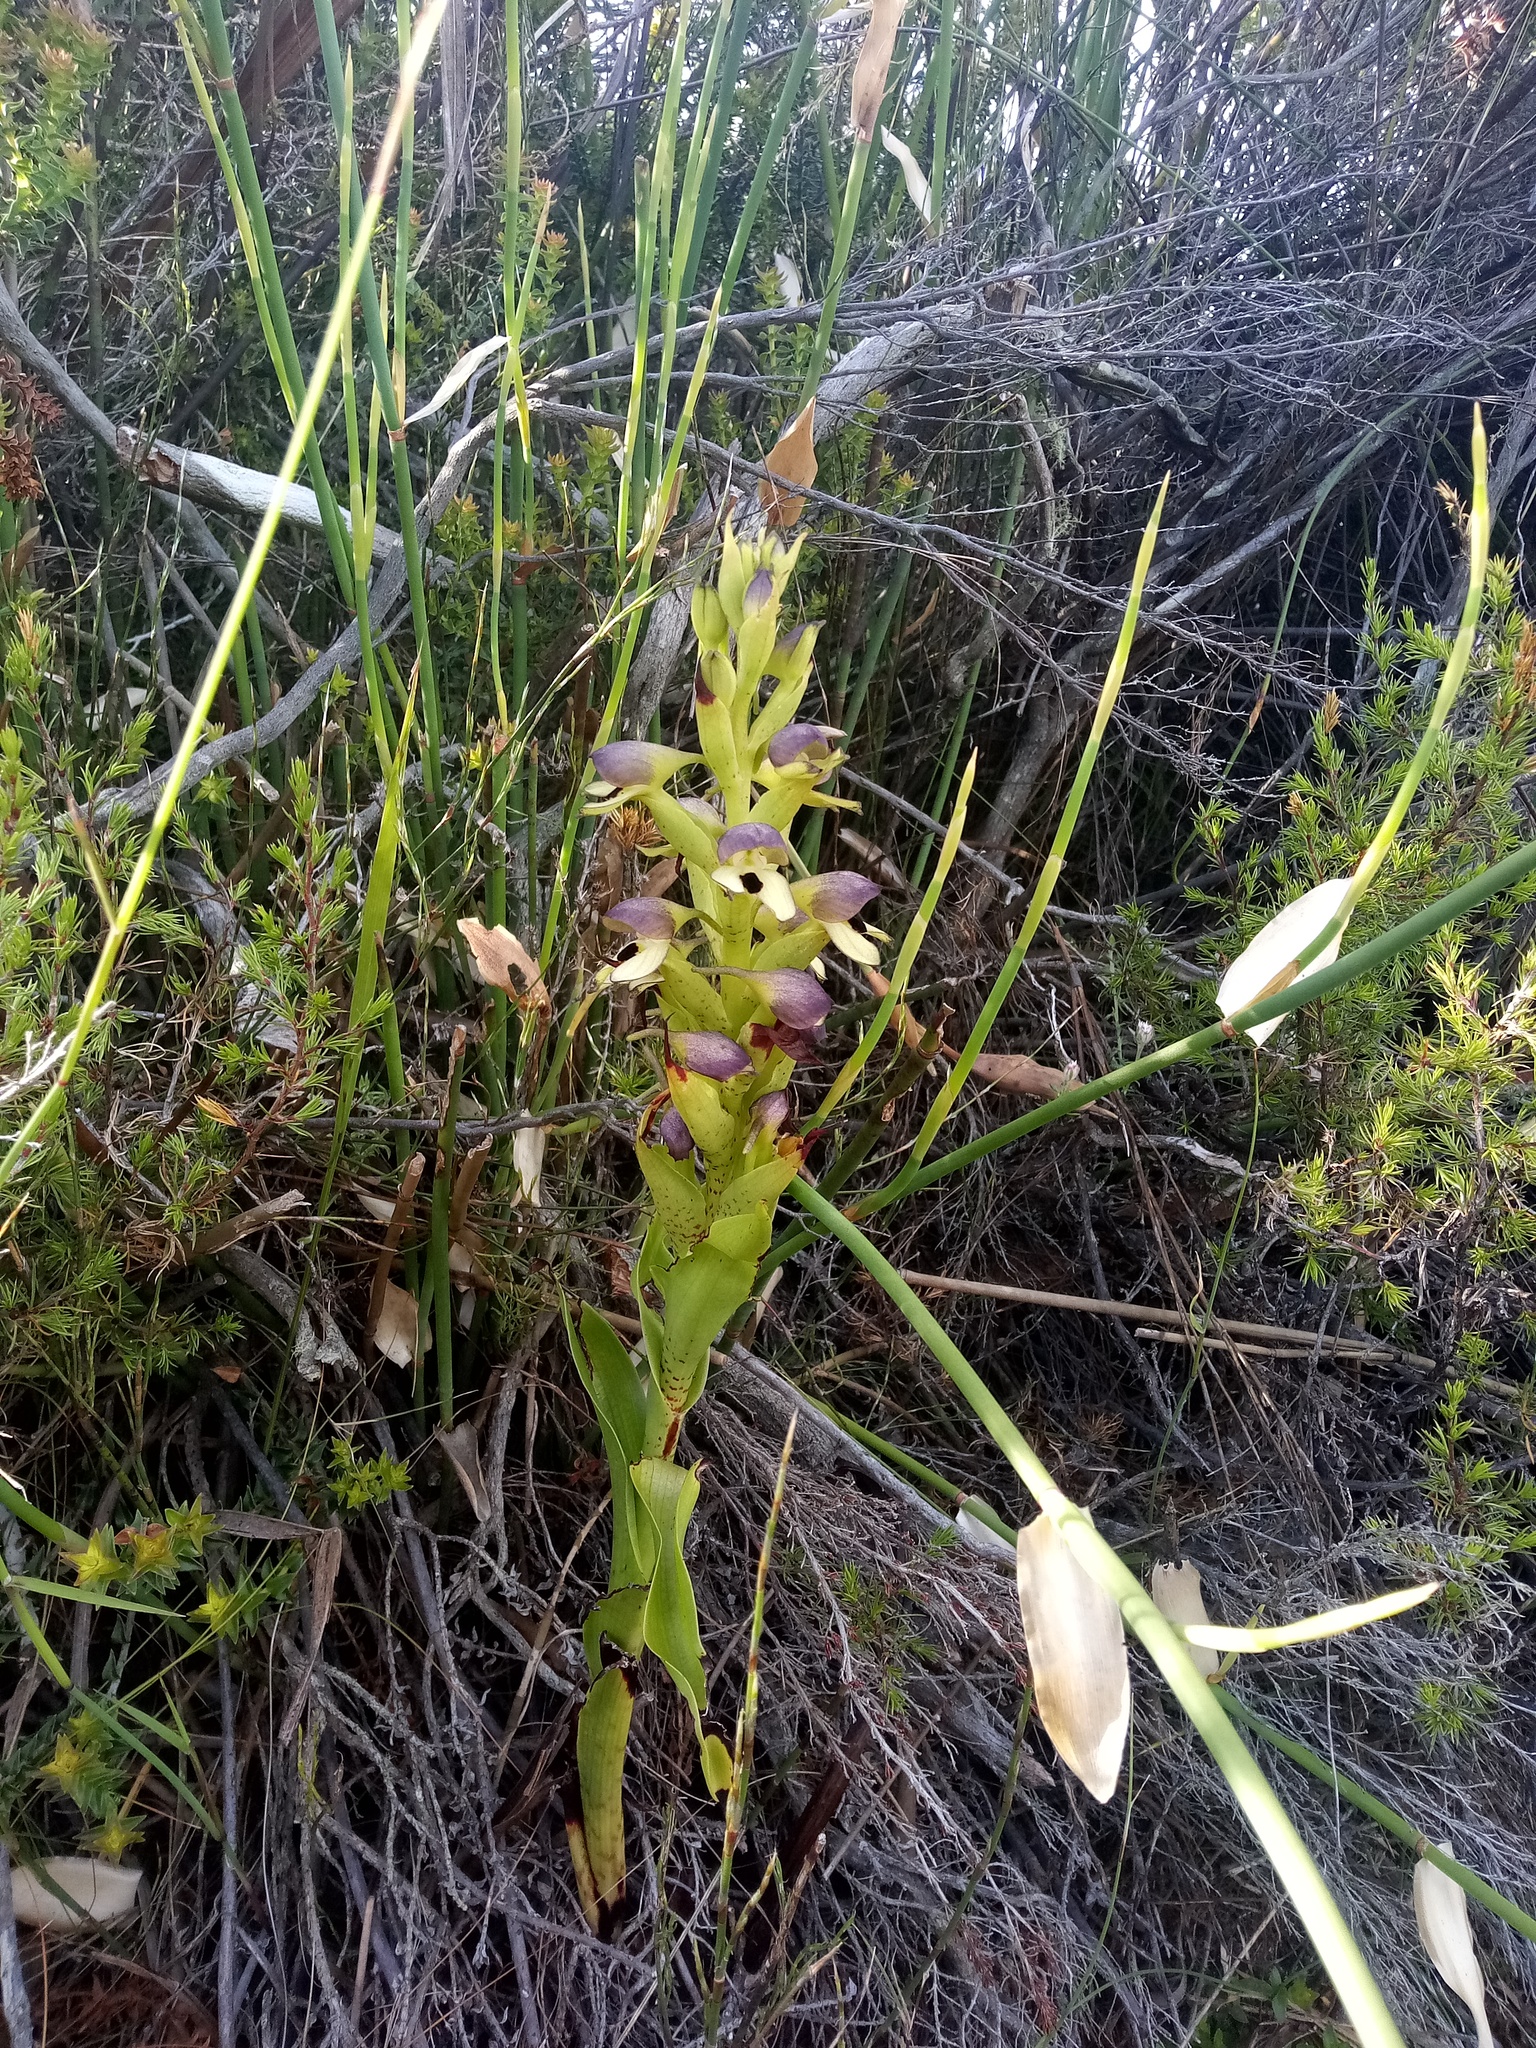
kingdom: Plantae
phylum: Tracheophyta
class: Liliopsida
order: Asparagales
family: Orchidaceae
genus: Disa
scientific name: Disa cornuta
